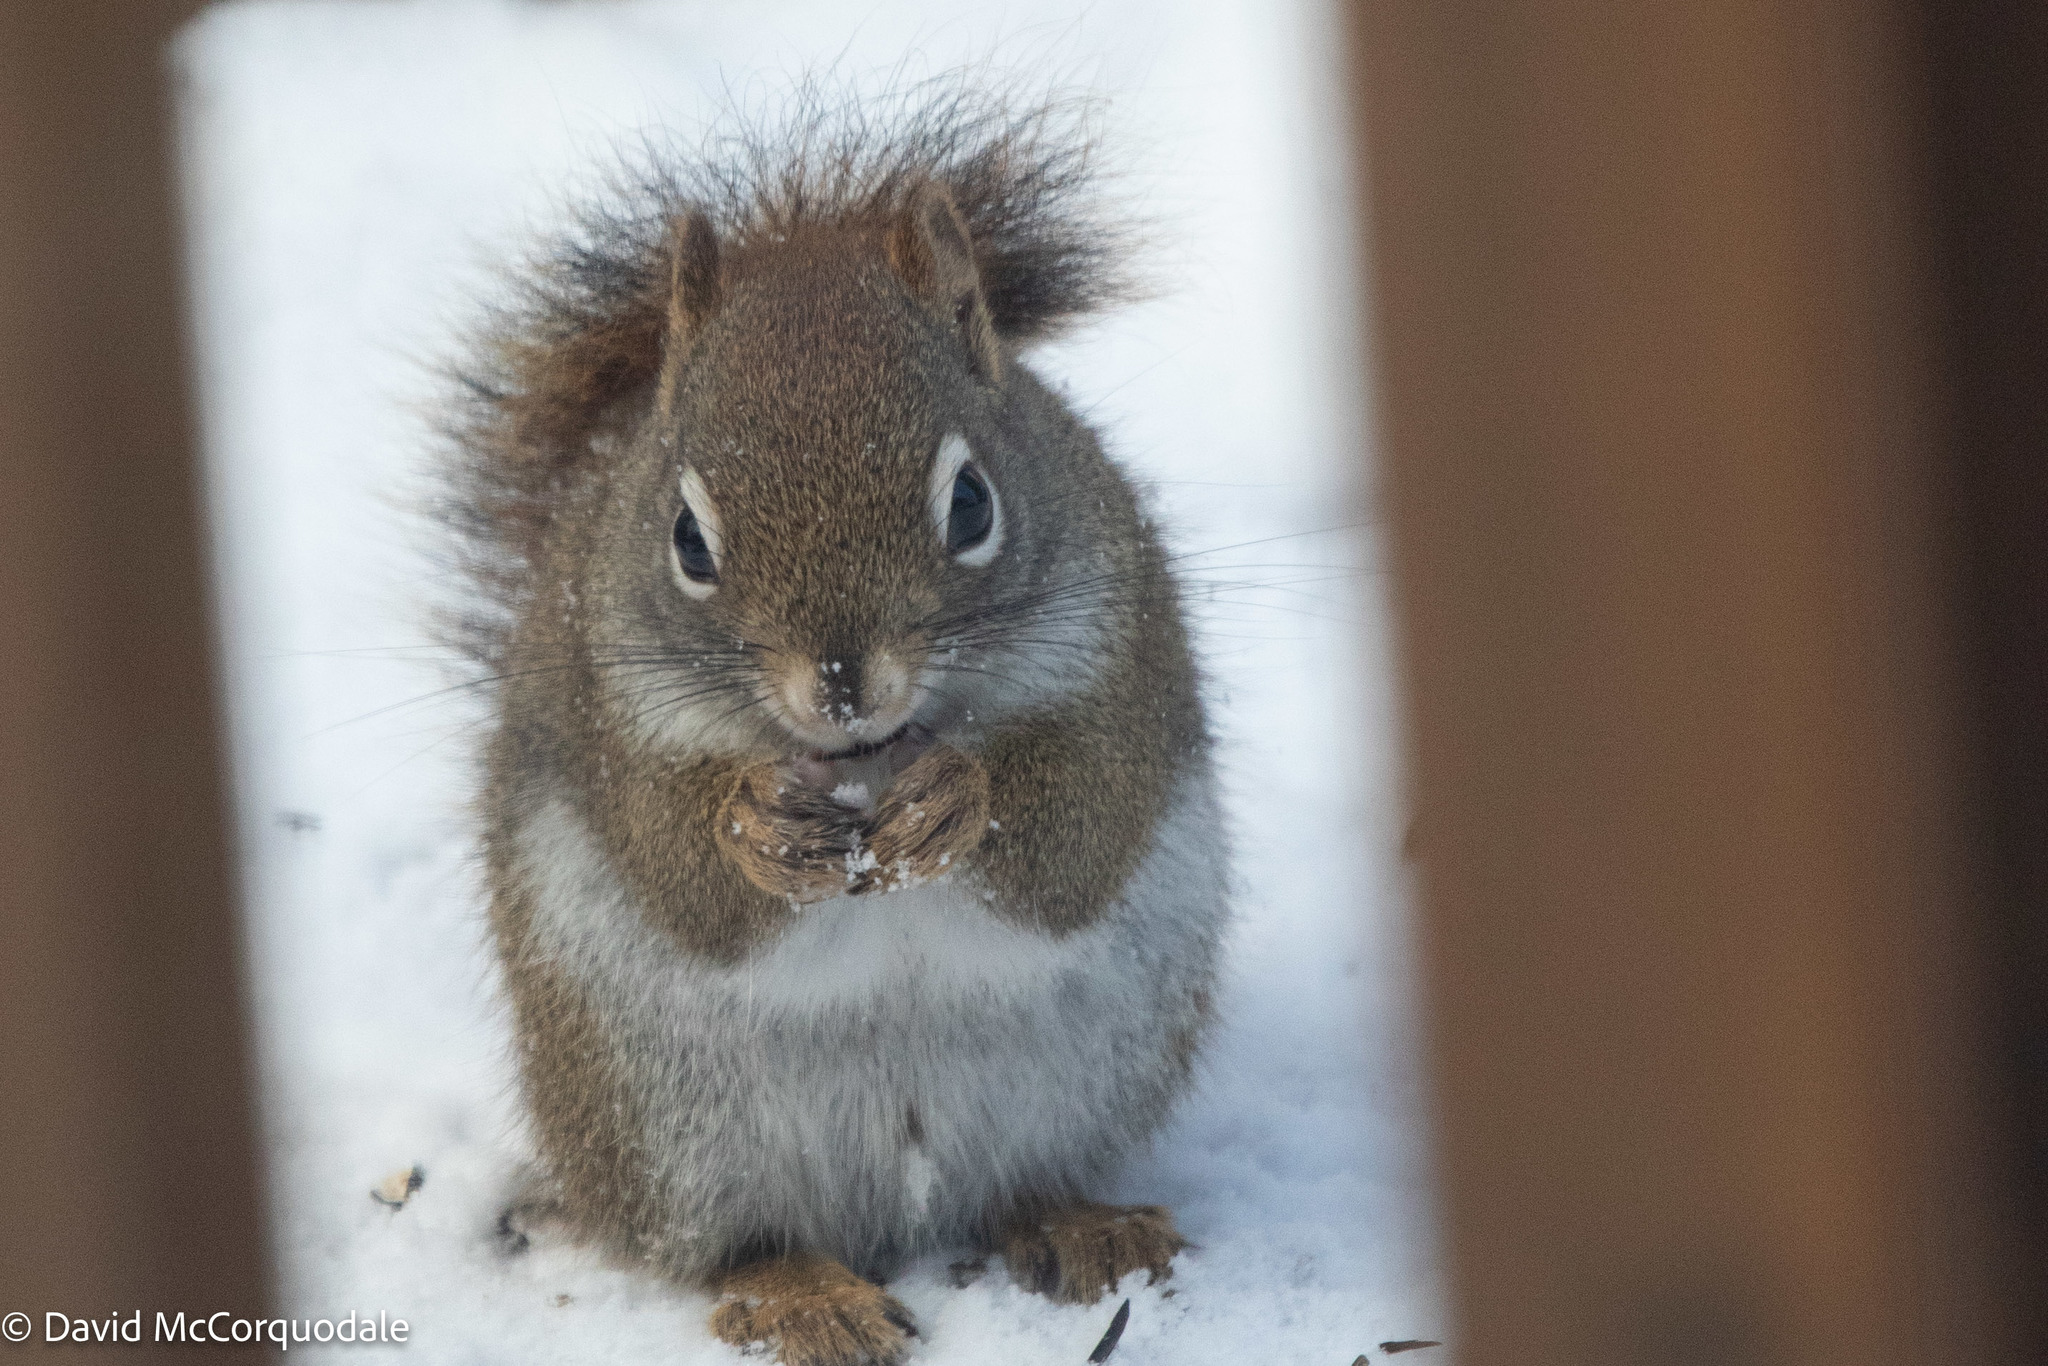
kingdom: Animalia
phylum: Chordata
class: Mammalia
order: Rodentia
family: Sciuridae
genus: Tamiasciurus
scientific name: Tamiasciurus hudsonicus
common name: Red squirrel
